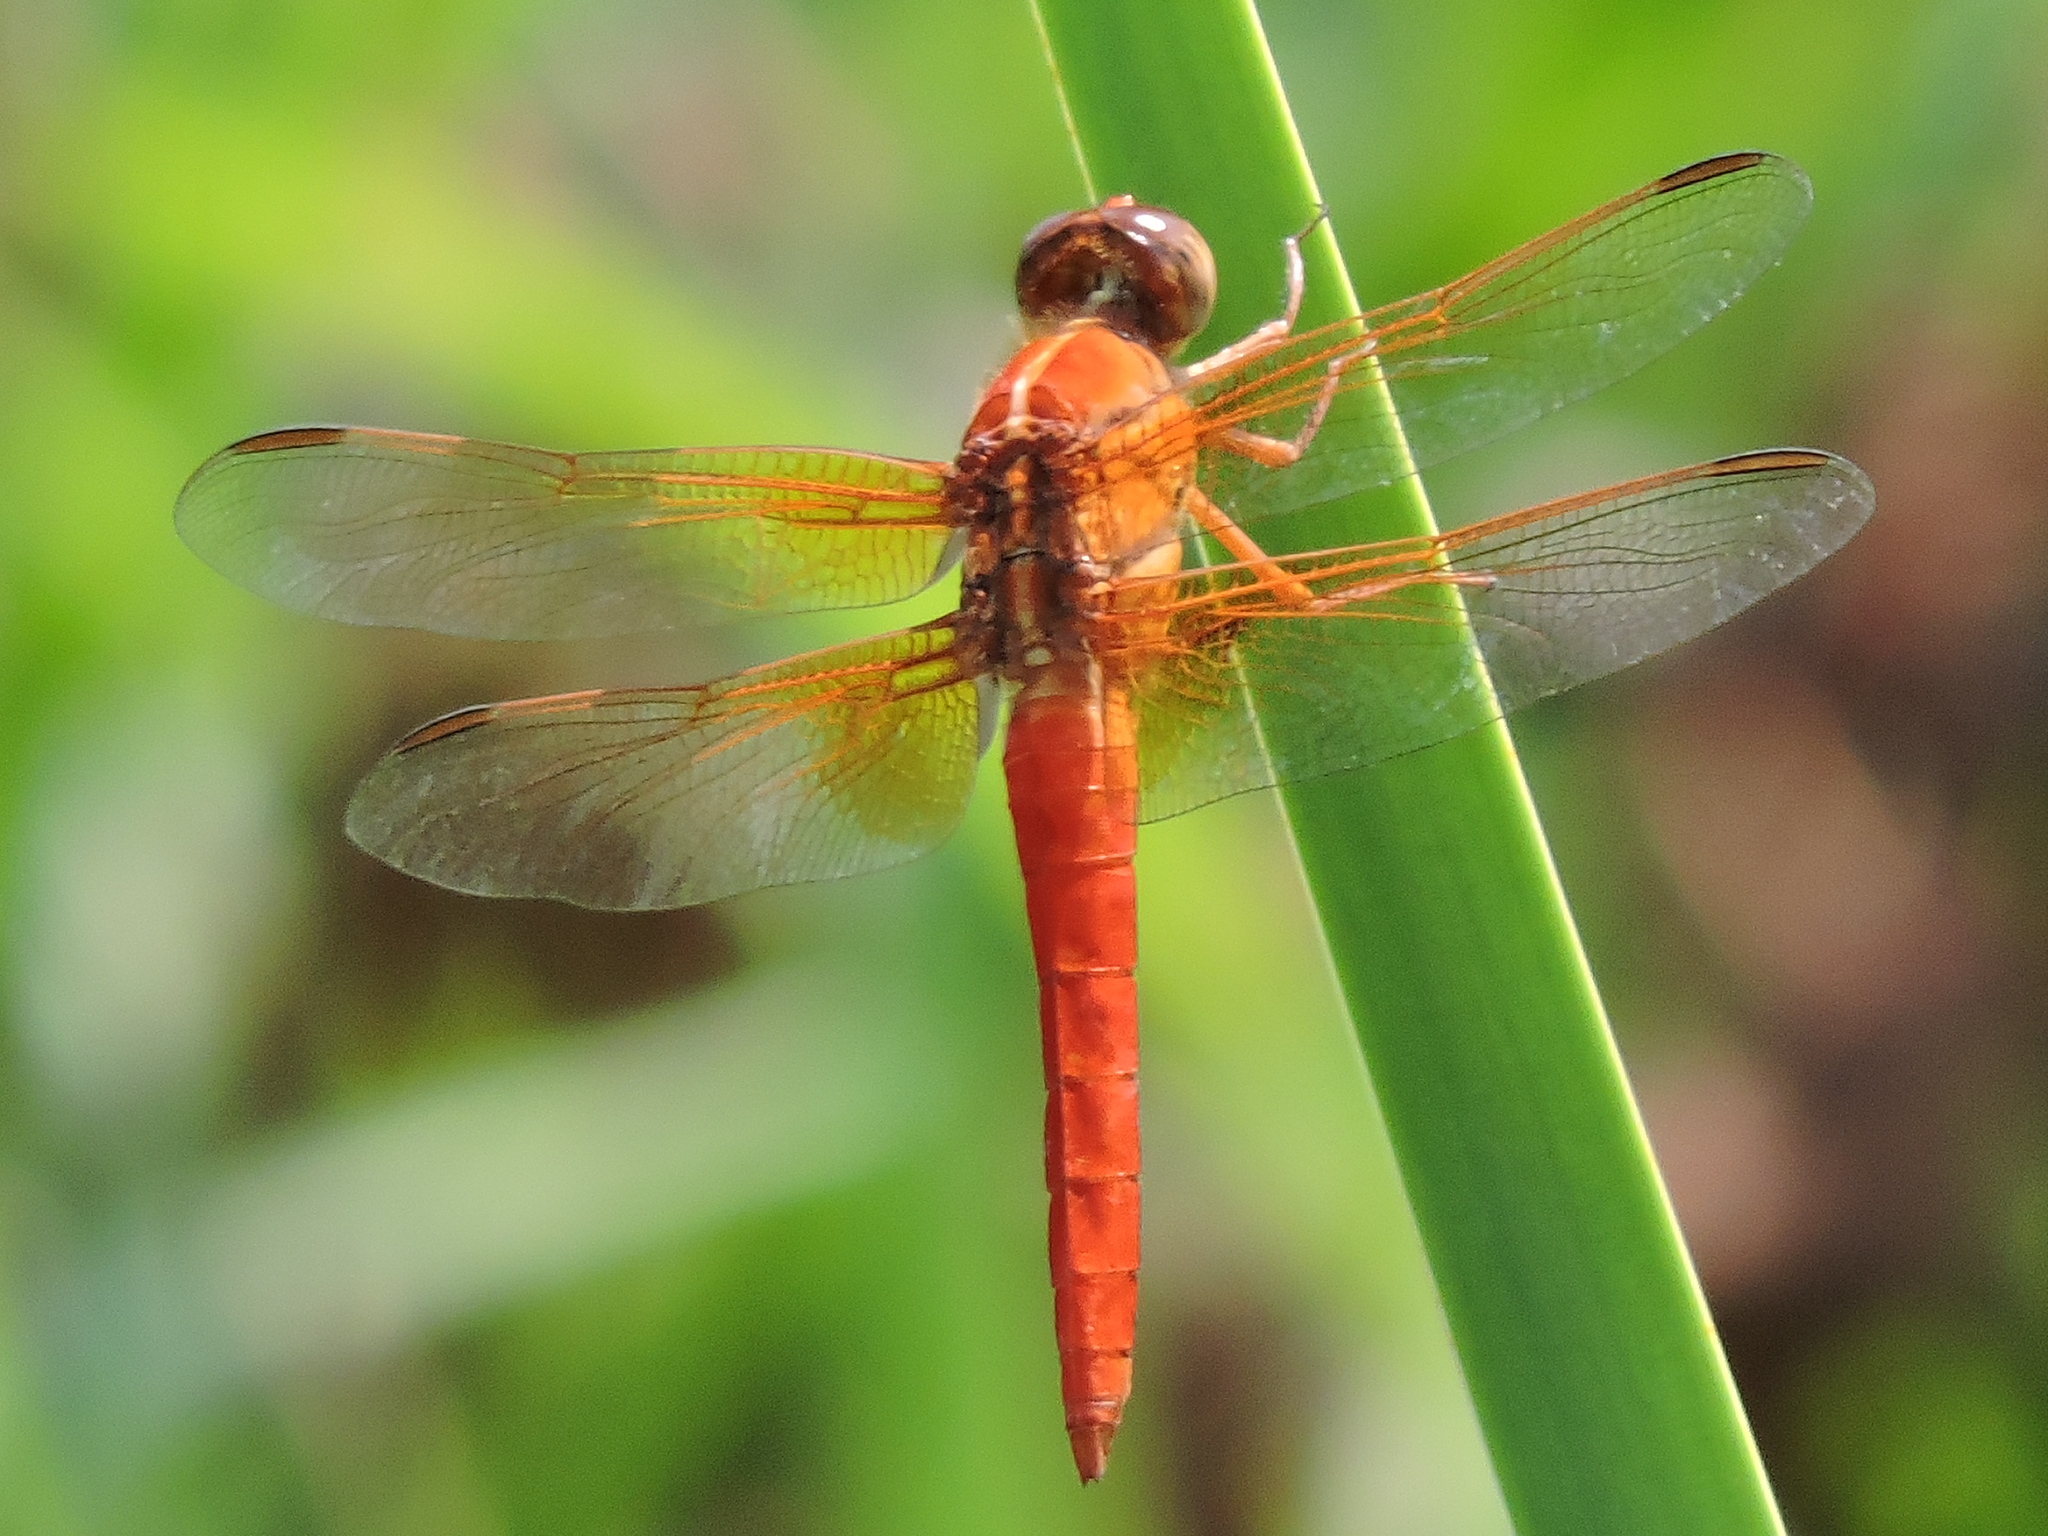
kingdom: Animalia
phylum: Arthropoda
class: Insecta
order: Odonata
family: Libellulidae
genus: Libellula
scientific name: Libellula croceipennis
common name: Neon skimmer
